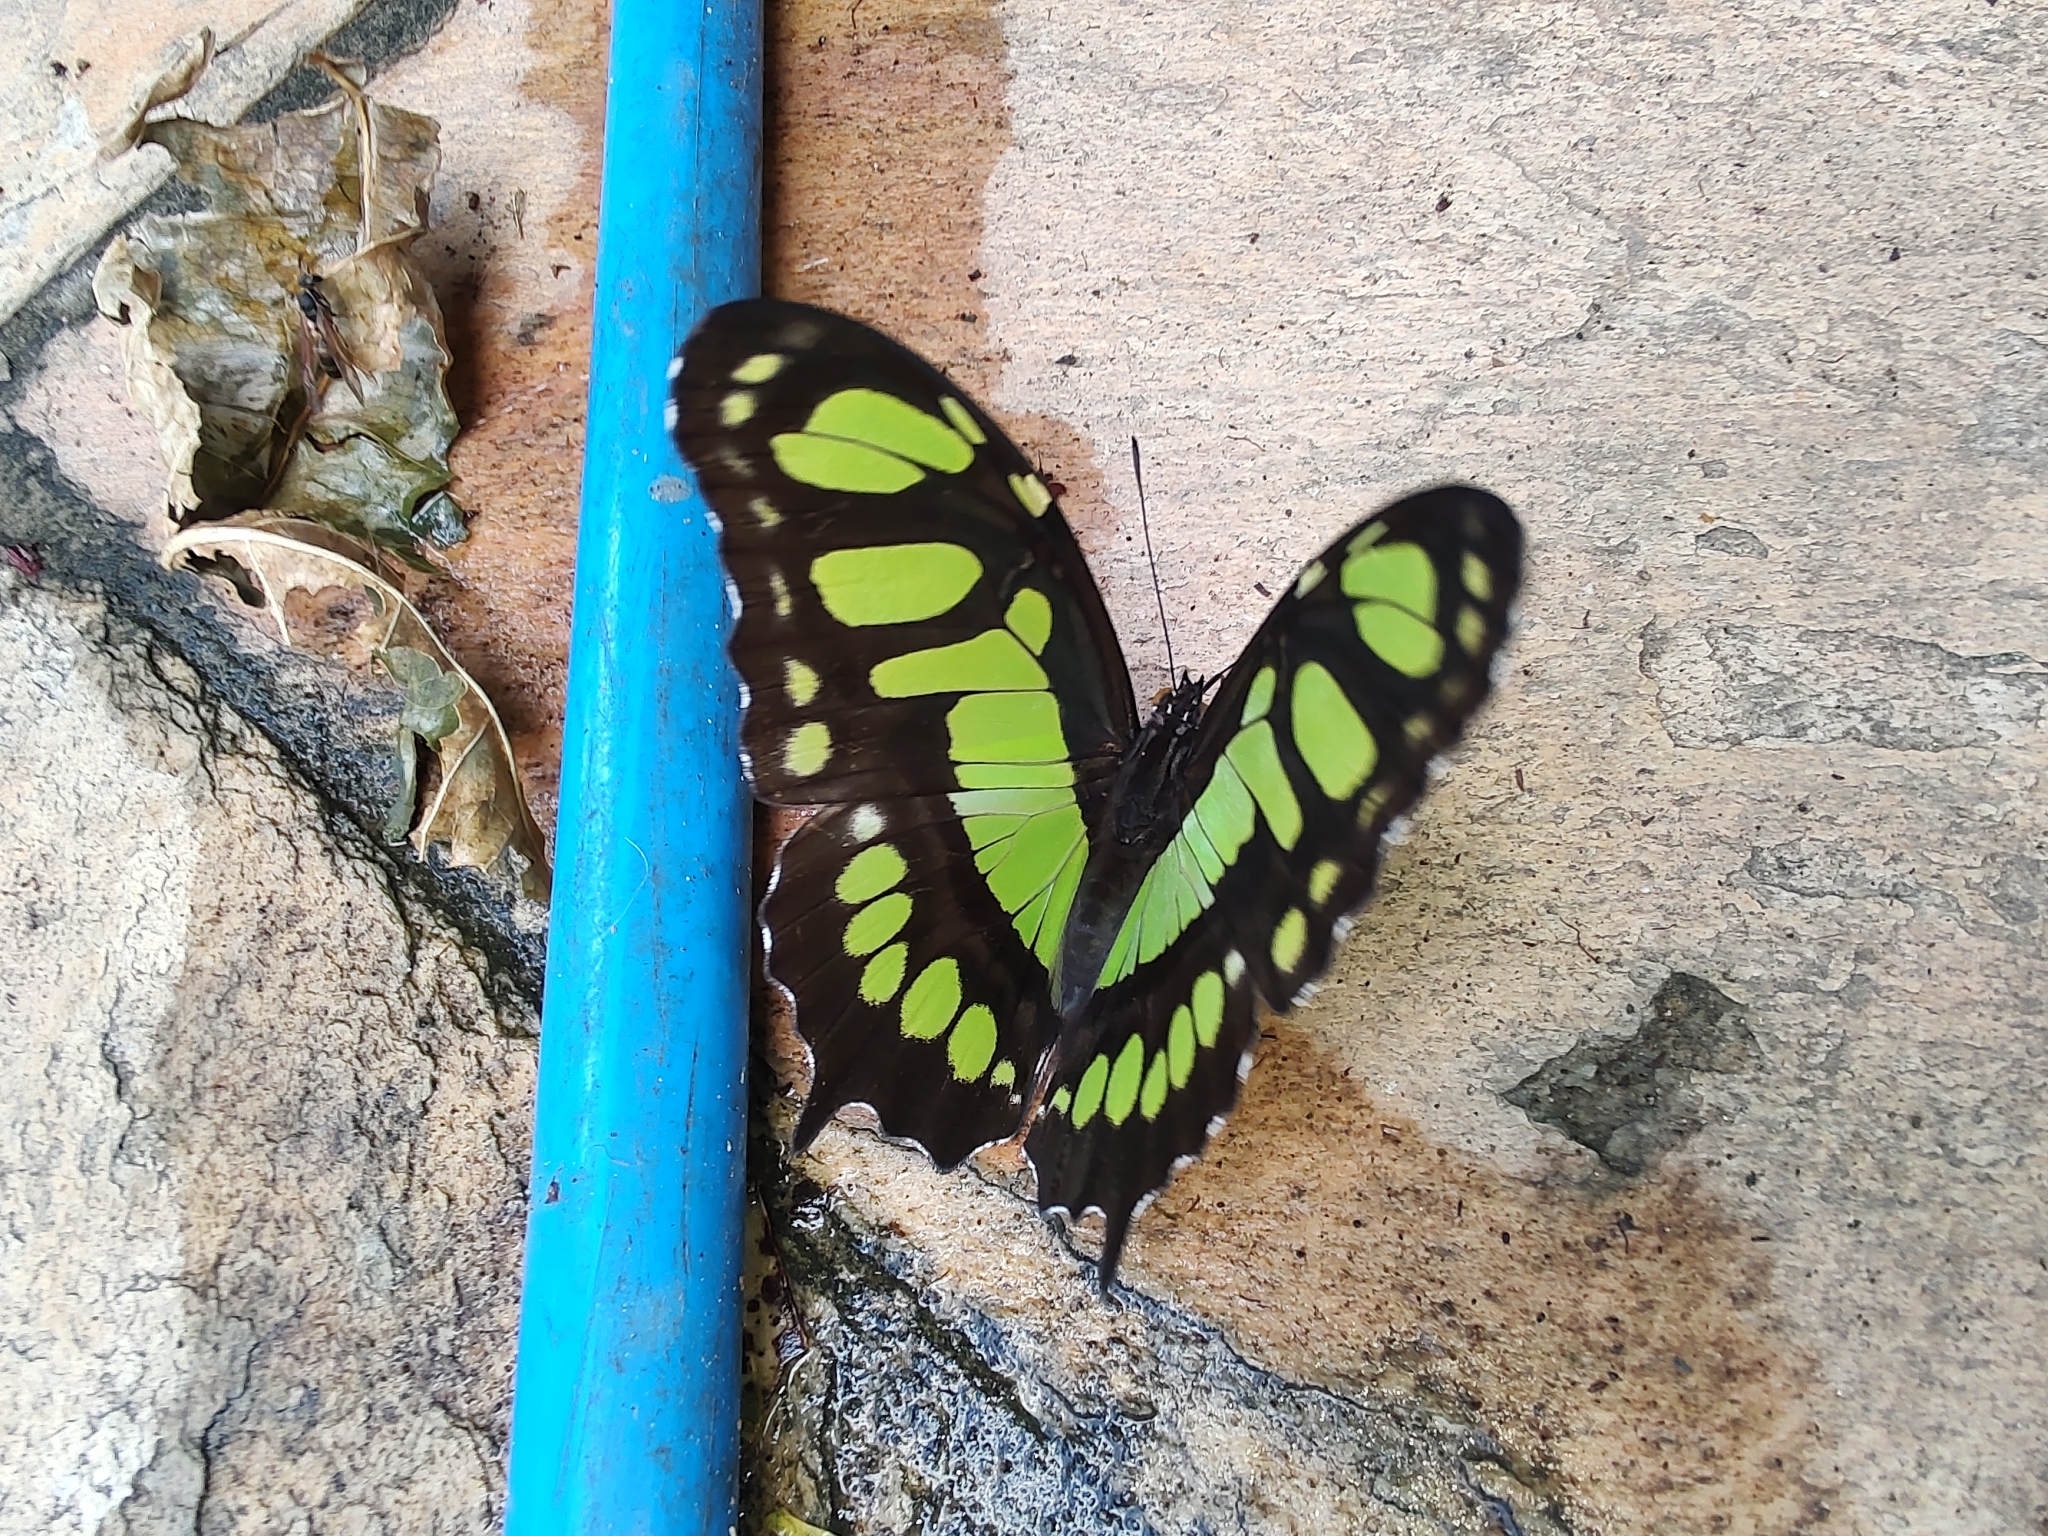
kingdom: Animalia
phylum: Arthropoda
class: Insecta
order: Lepidoptera
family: Nymphalidae
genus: Siproeta
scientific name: Siproeta stelenes
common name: Malachite
